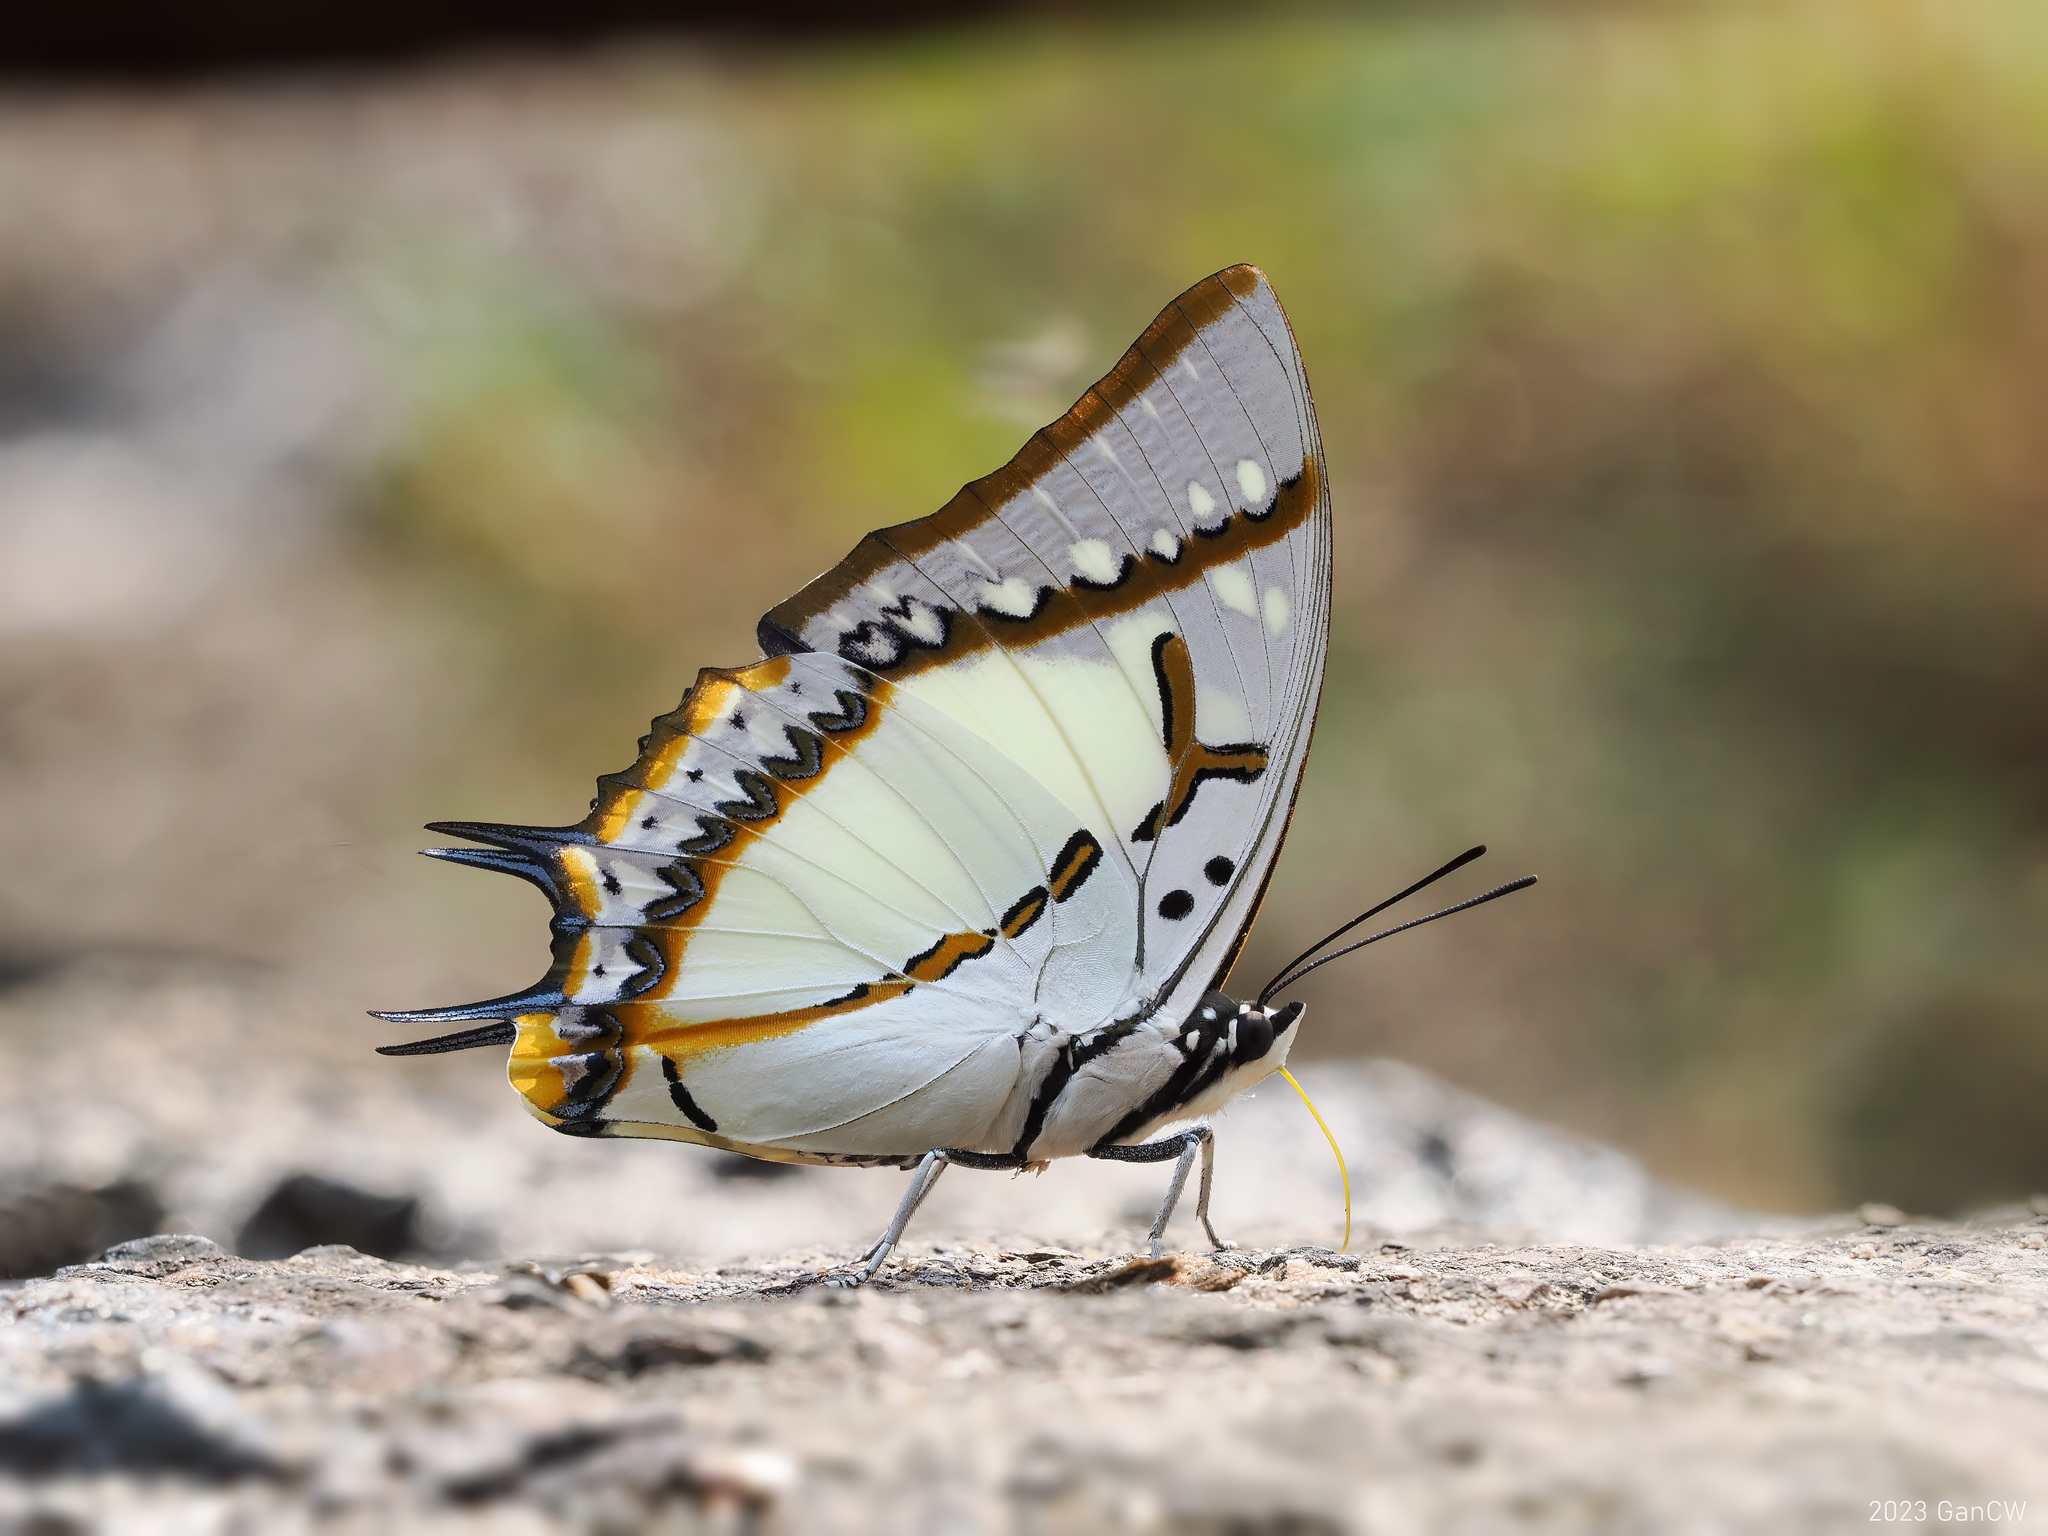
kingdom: Animalia
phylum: Arthropoda
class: Insecta
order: Lepidoptera
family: Nymphalidae
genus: Polyura
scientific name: Polyura eudamippus
